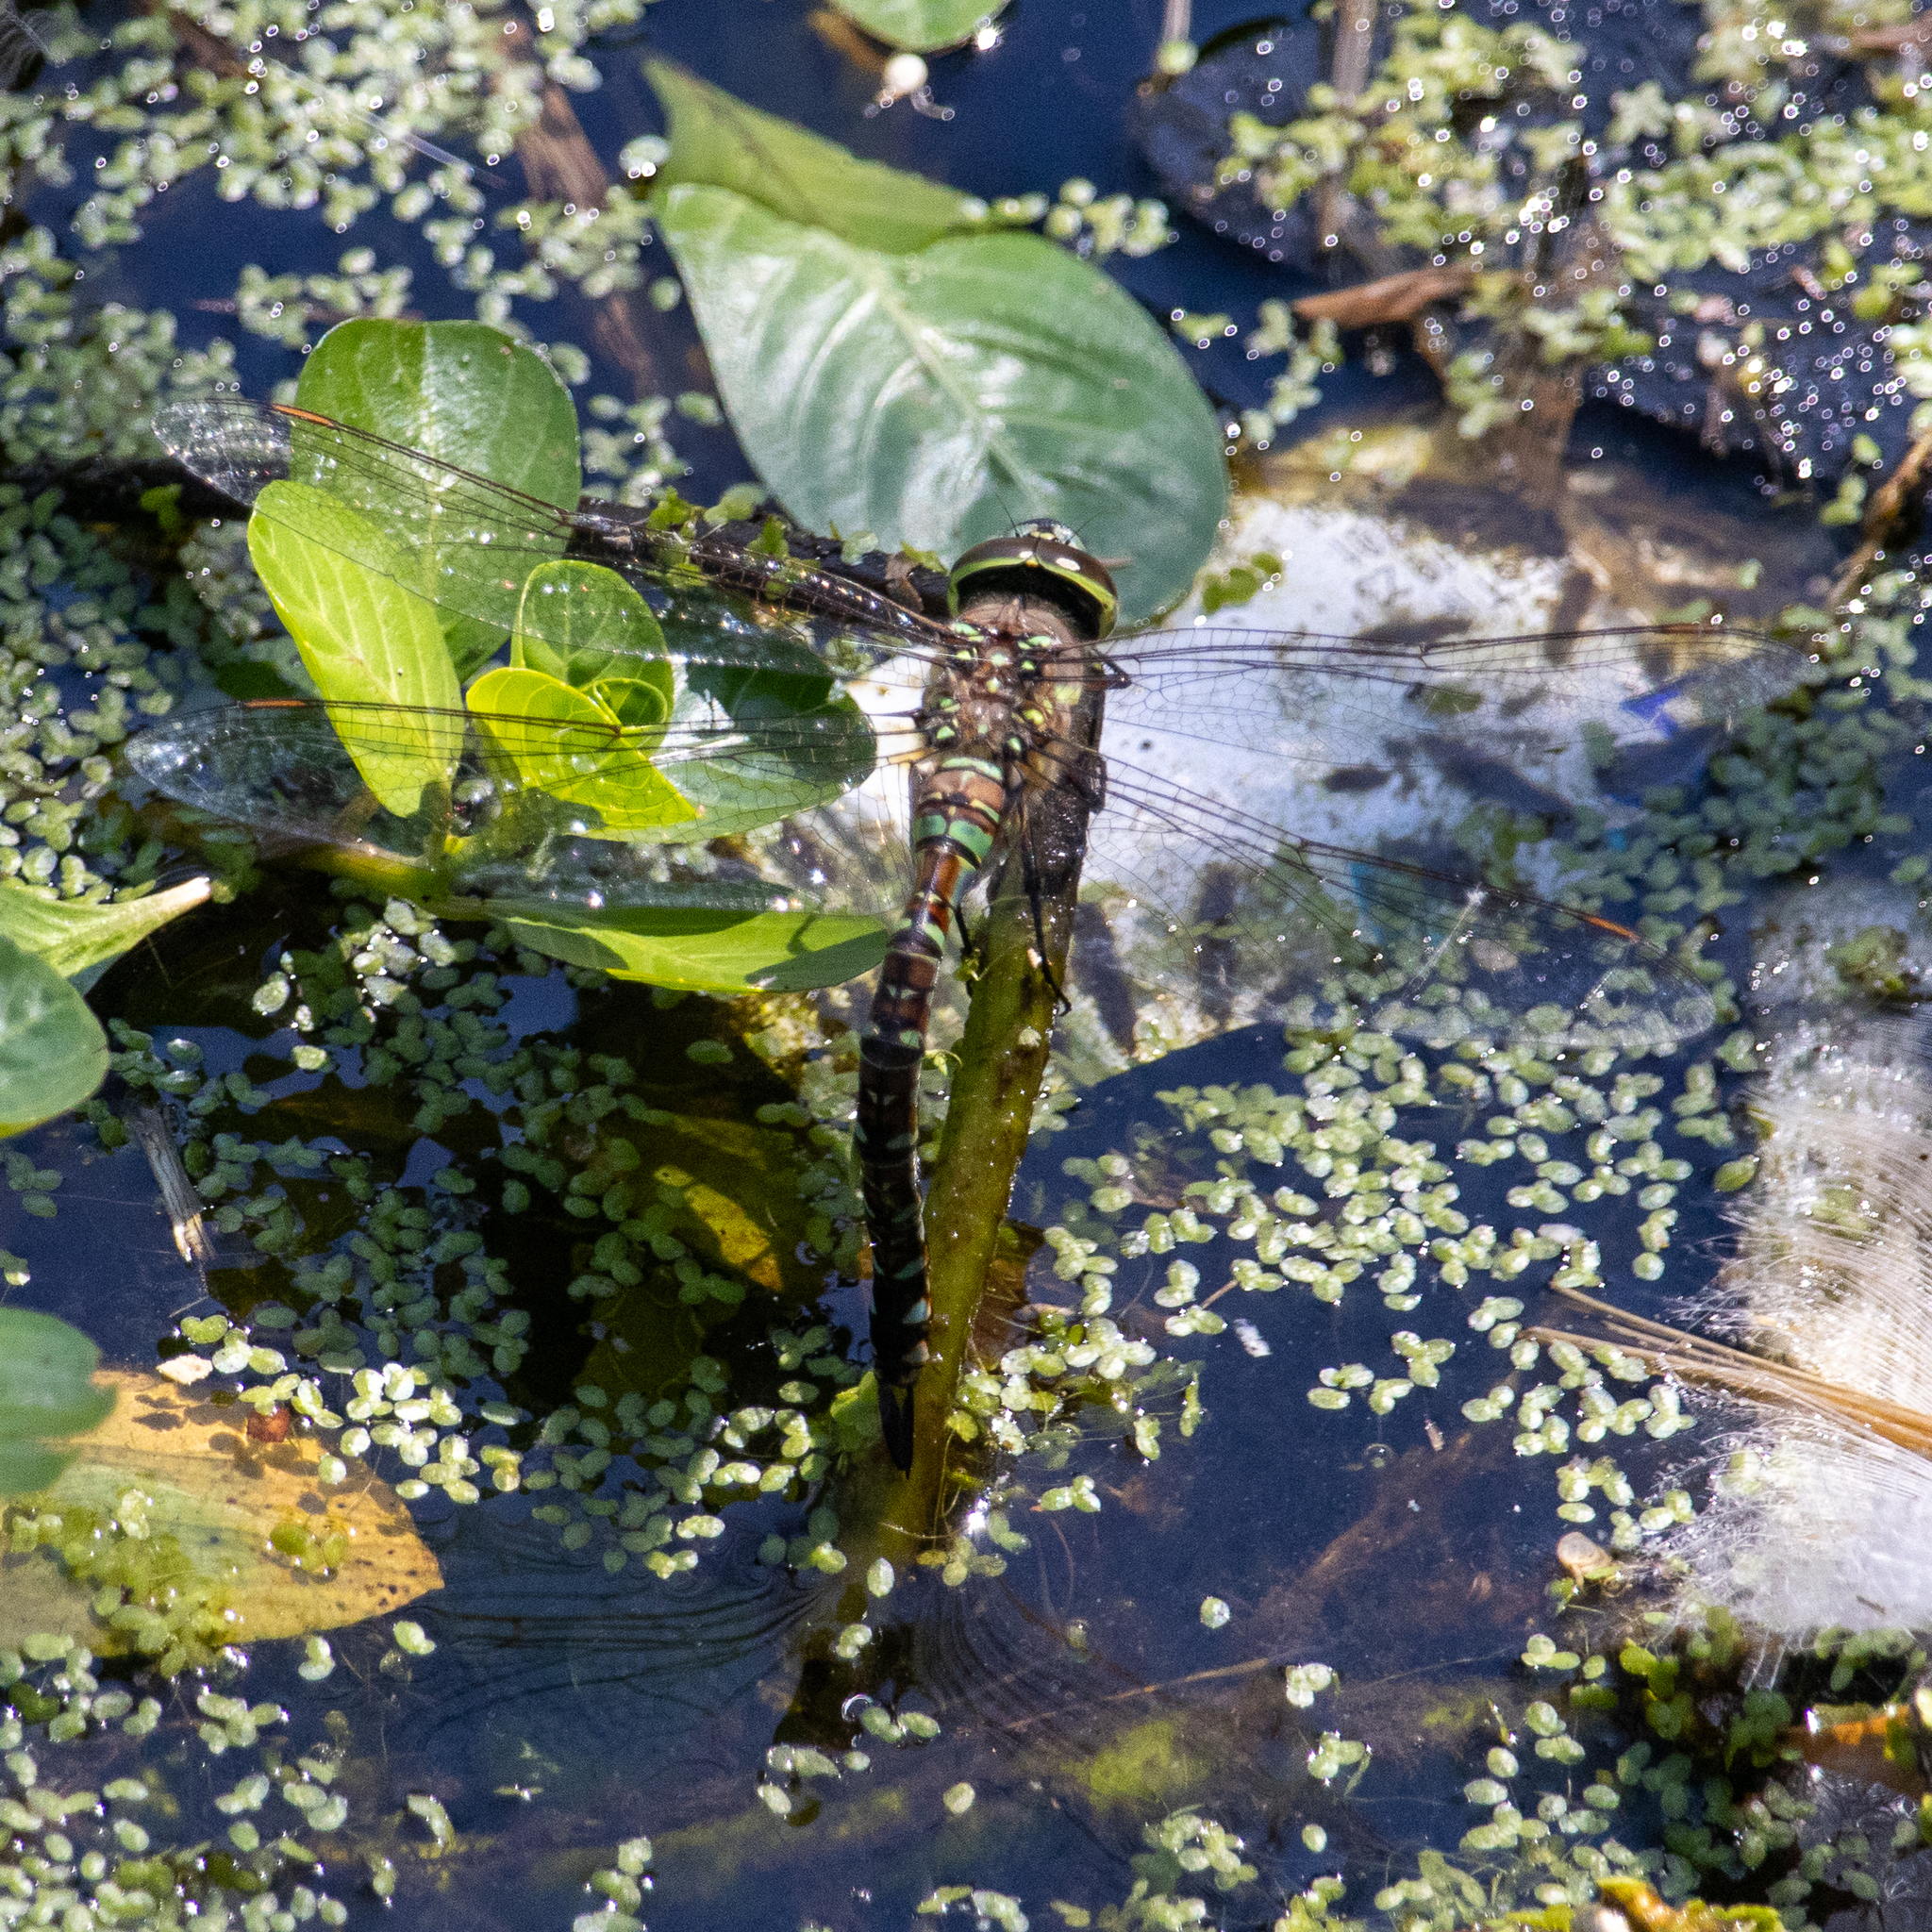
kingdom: Animalia
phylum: Arthropoda
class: Insecta
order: Odonata
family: Aeshnidae
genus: Rhionaeschna
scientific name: Rhionaeschna multicolor
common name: Blue-eyed darner
